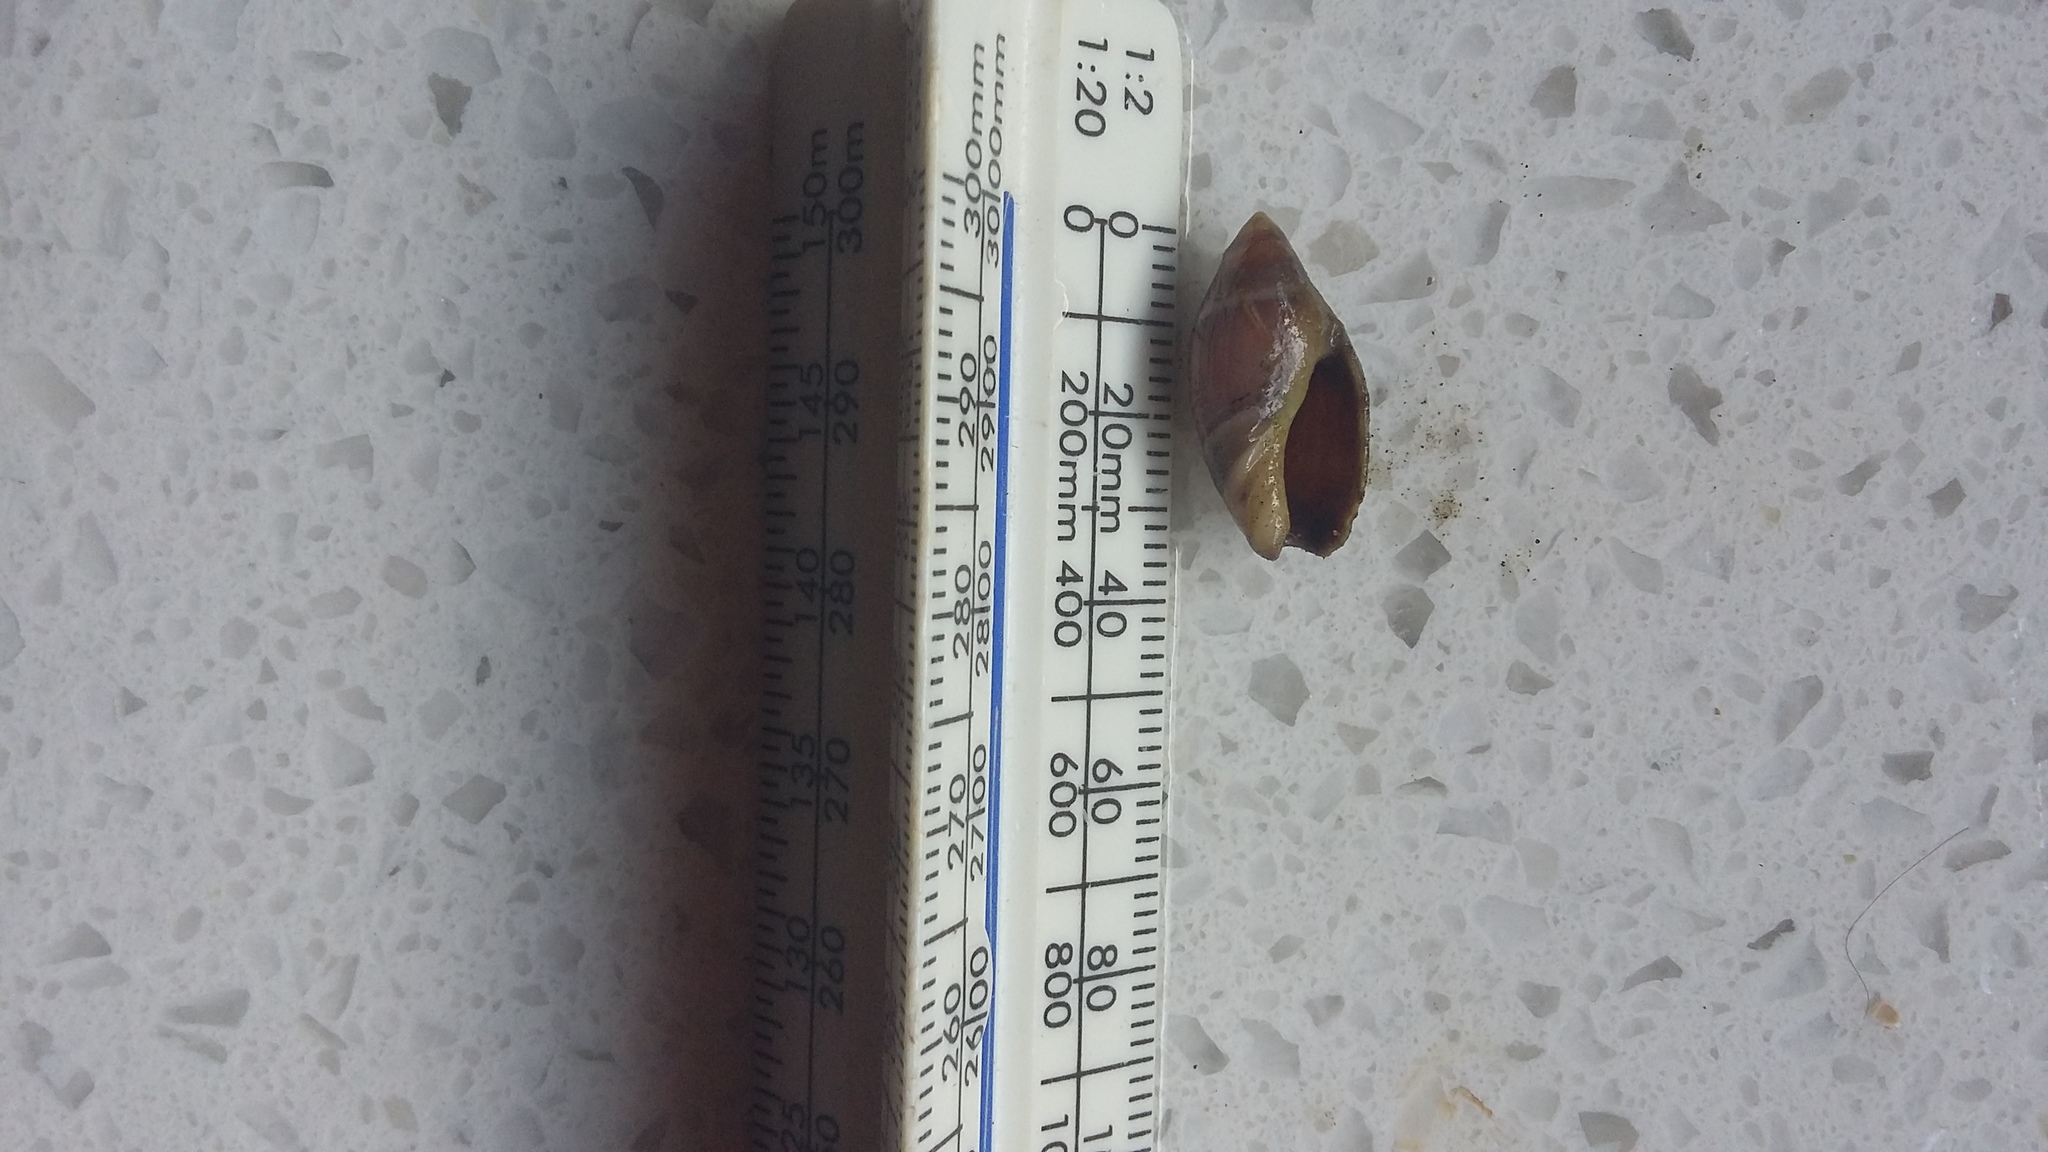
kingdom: Animalia
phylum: Mollusca
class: Gastropoda
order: Neogastropoda
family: Ancillariidae
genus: Amalda
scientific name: Amalda australis
